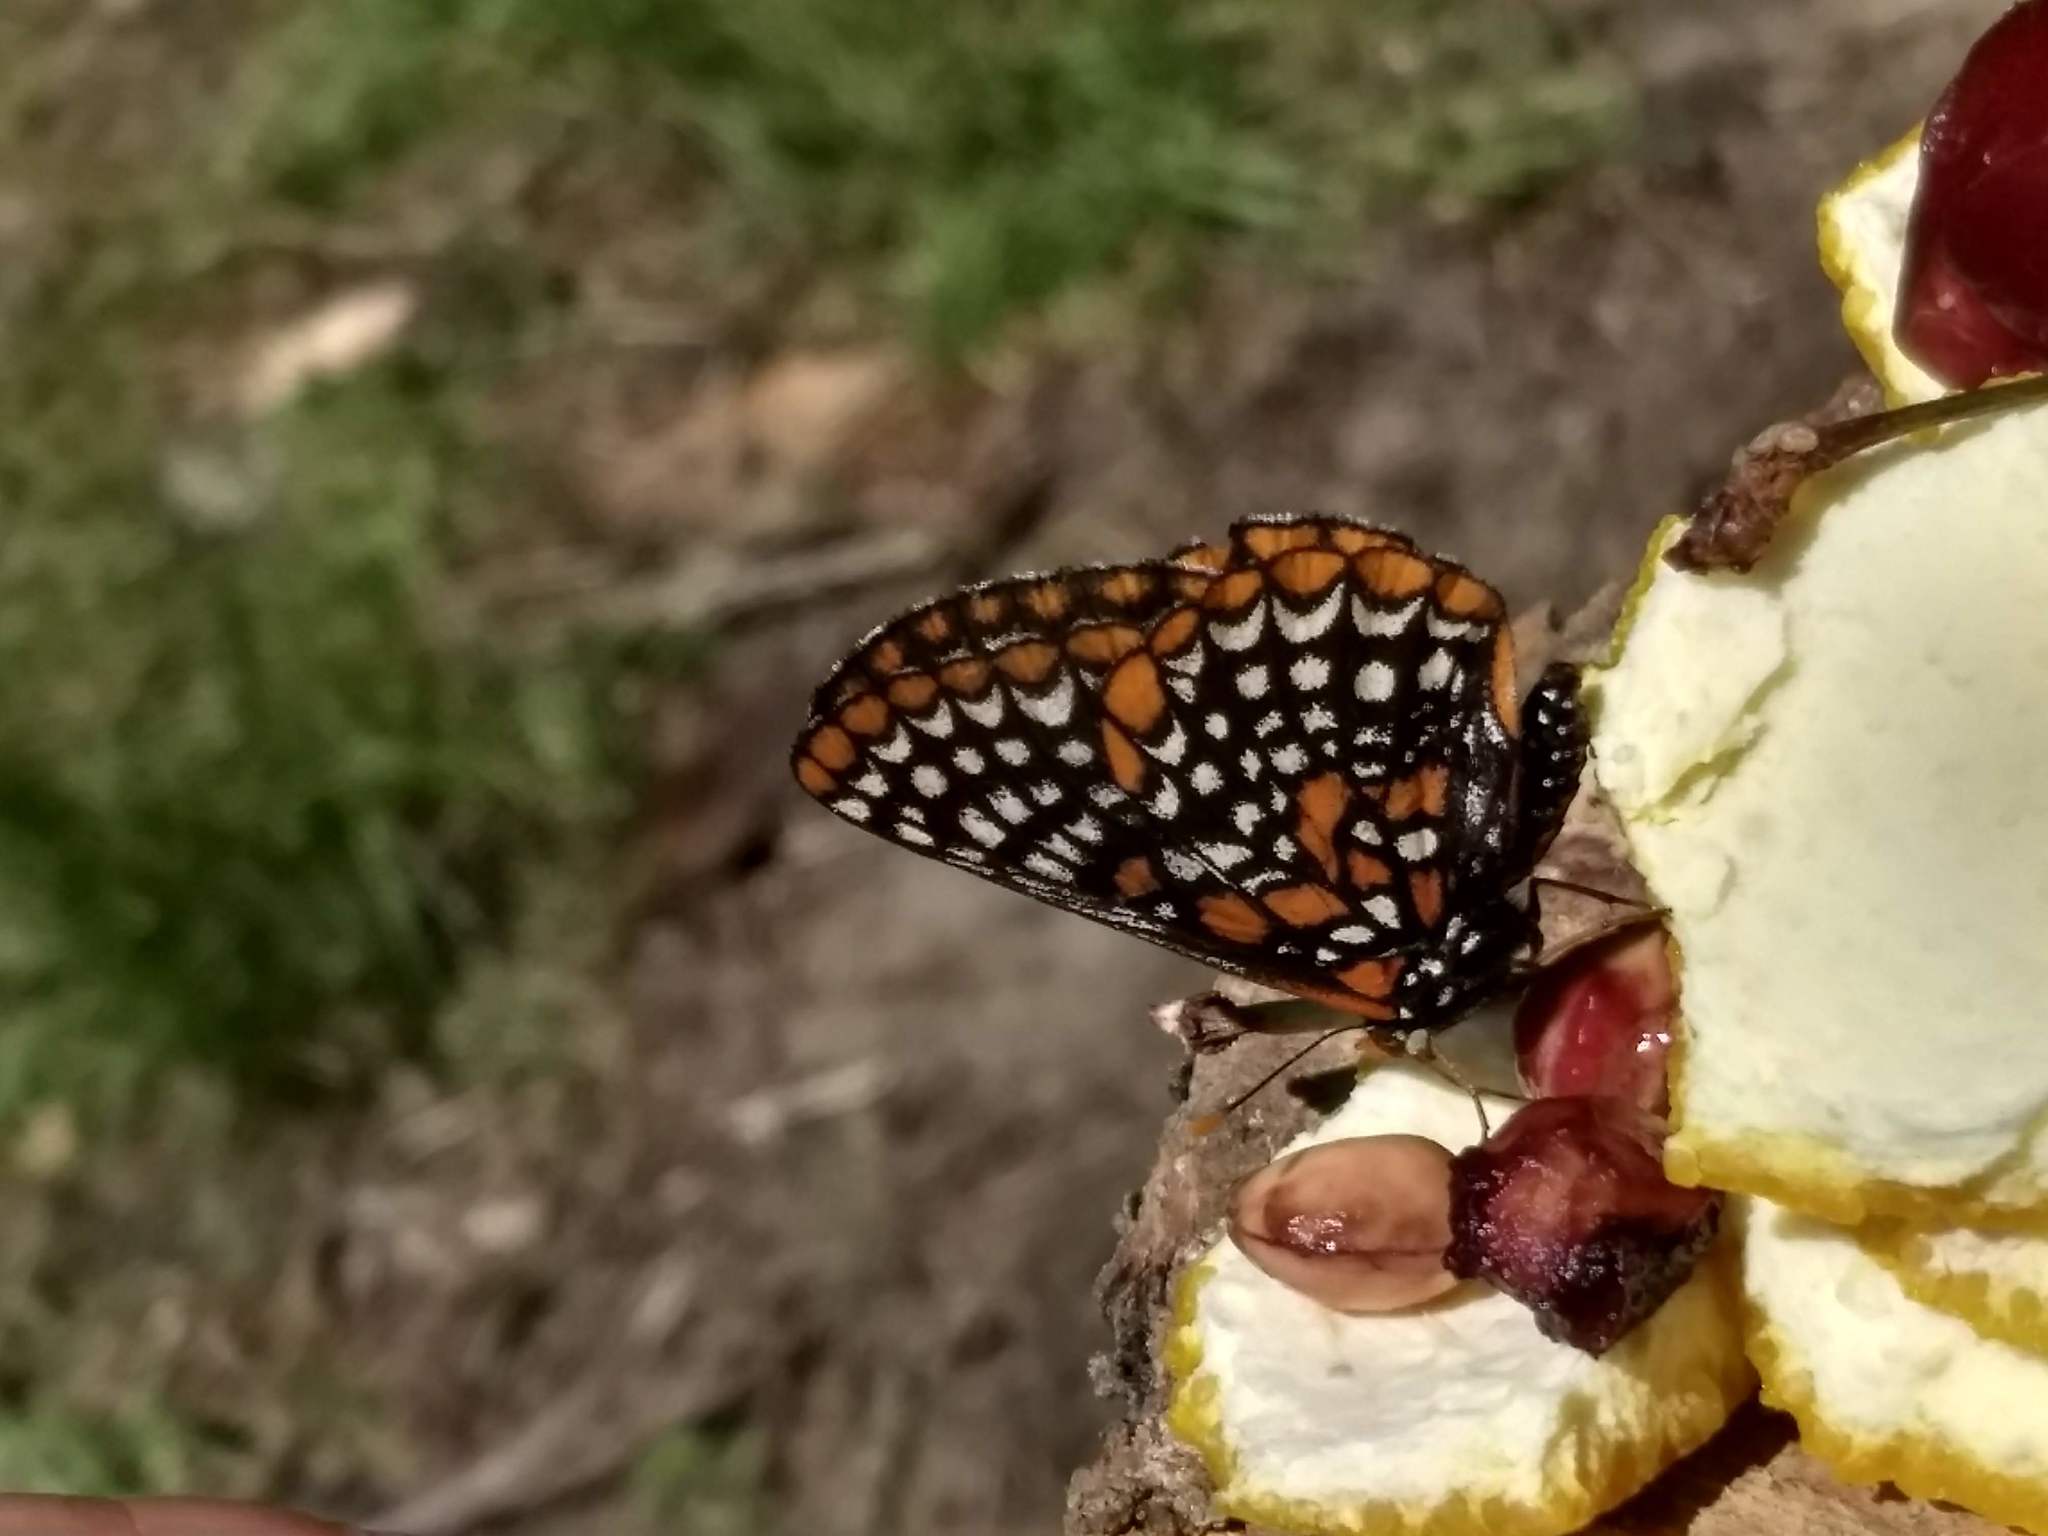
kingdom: Animalia
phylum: Arthropoda
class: Insecta
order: Lepidoptera
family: Nymphalidae
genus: Euphydryas
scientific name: Euphydryas phaeton
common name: Baltimore checkerspot
